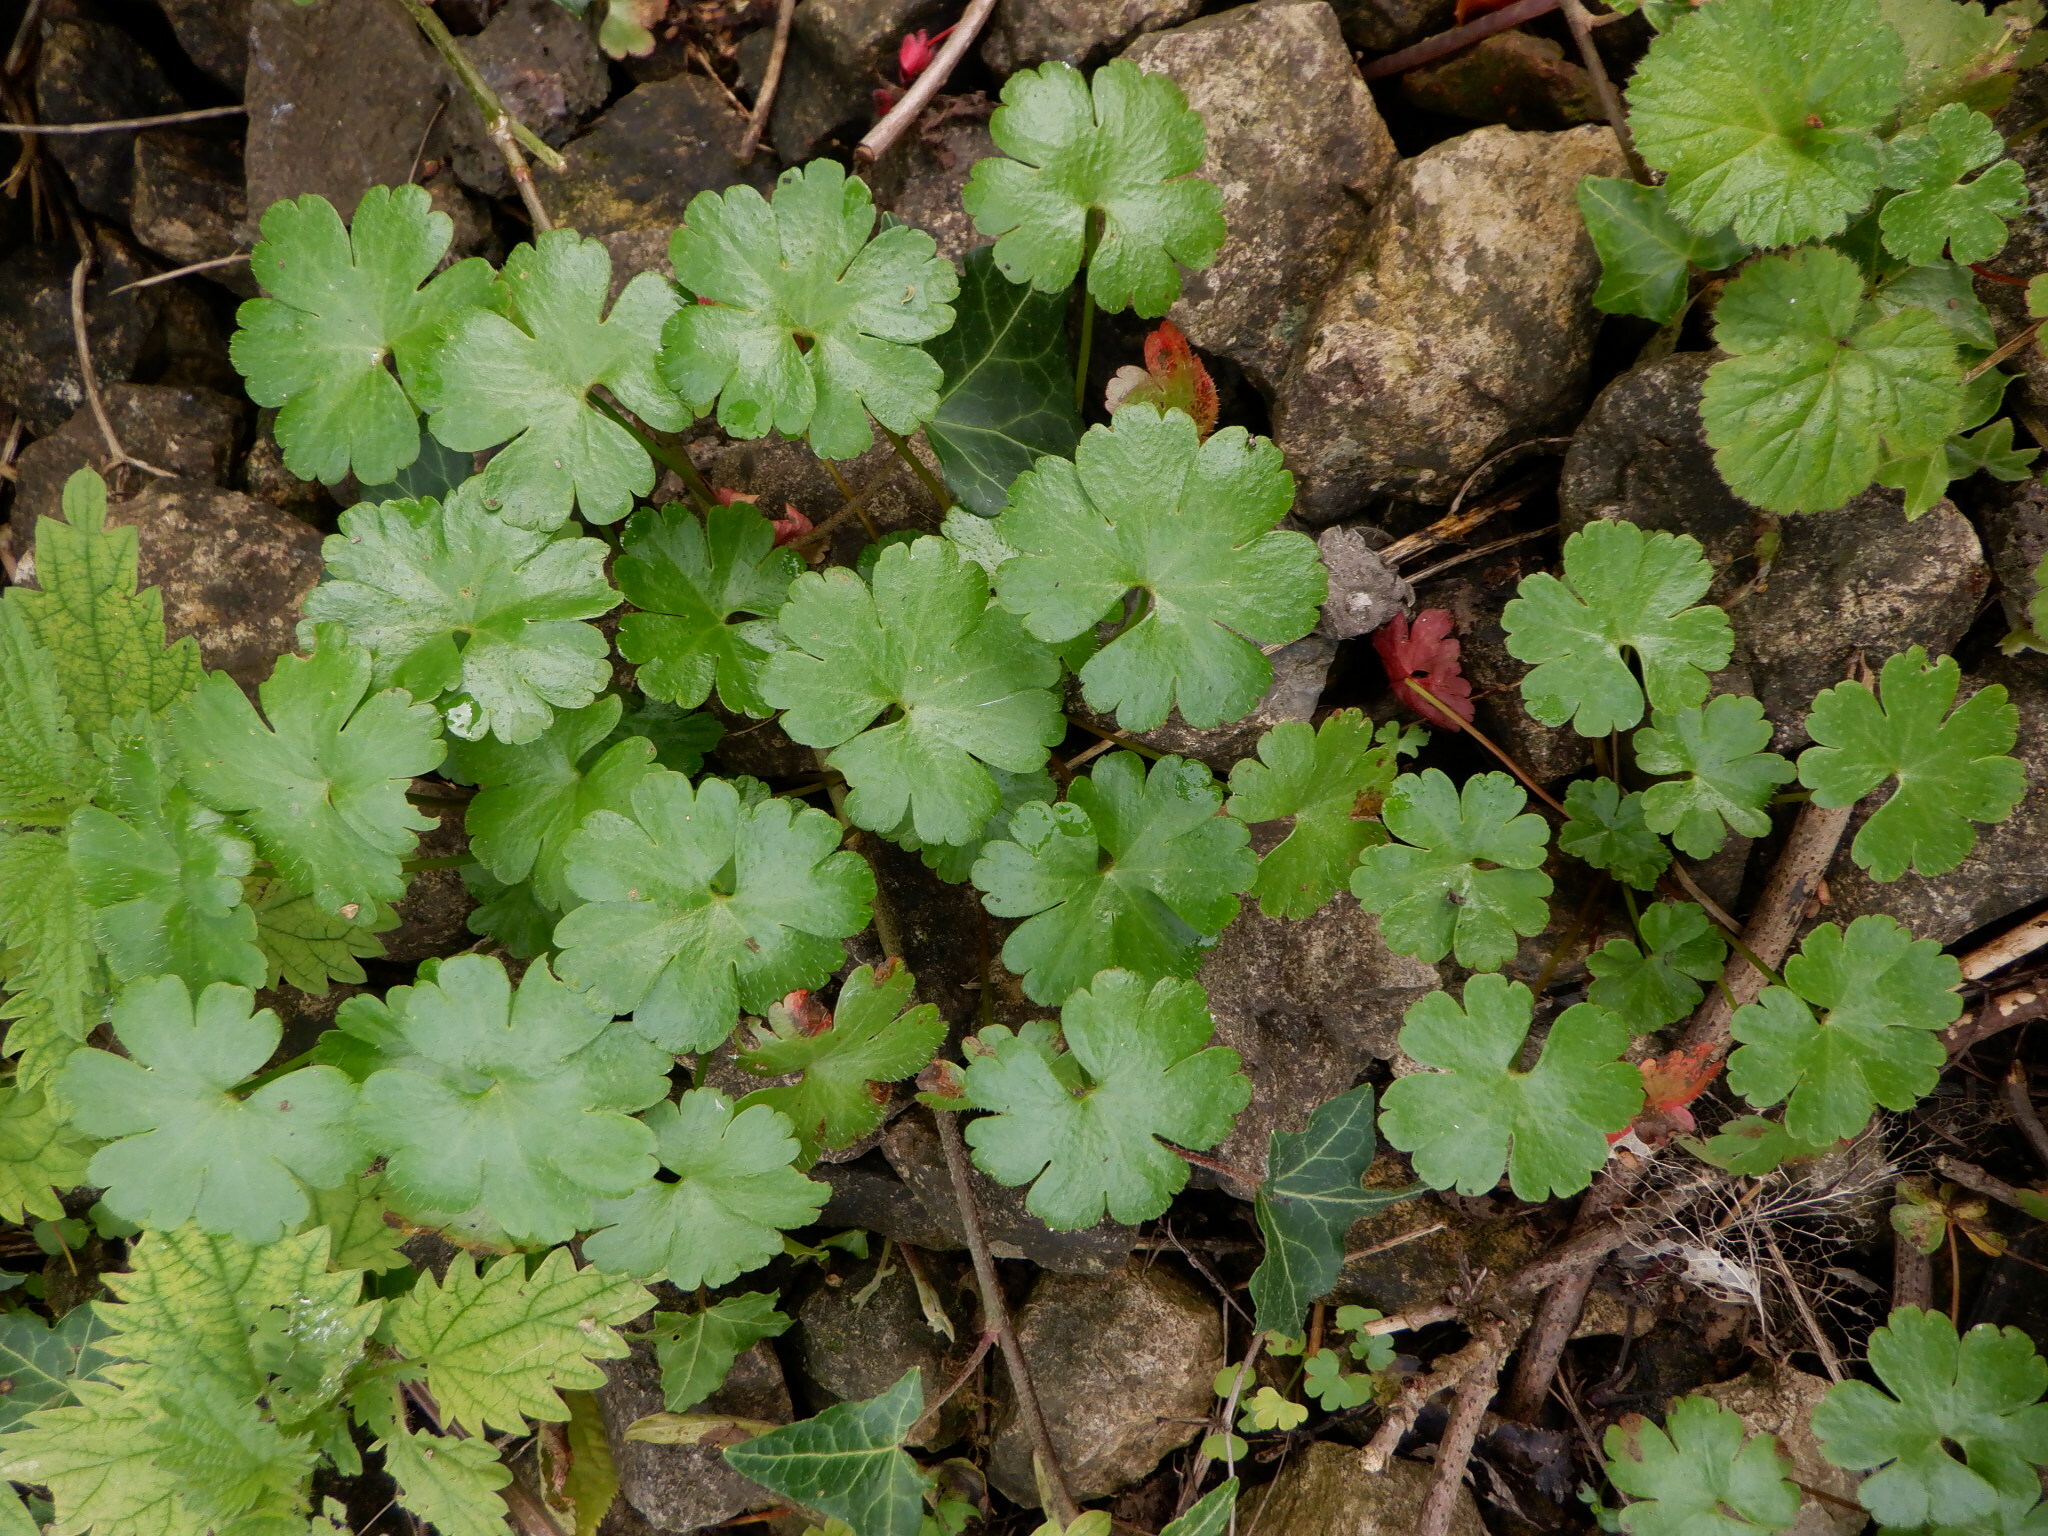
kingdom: Plantae
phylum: Tracheophyta
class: Magnoliopsida
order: Geraniales
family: Geraniaceae
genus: Geranium
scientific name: Geranium lucidum
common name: Shining crane's-bill
